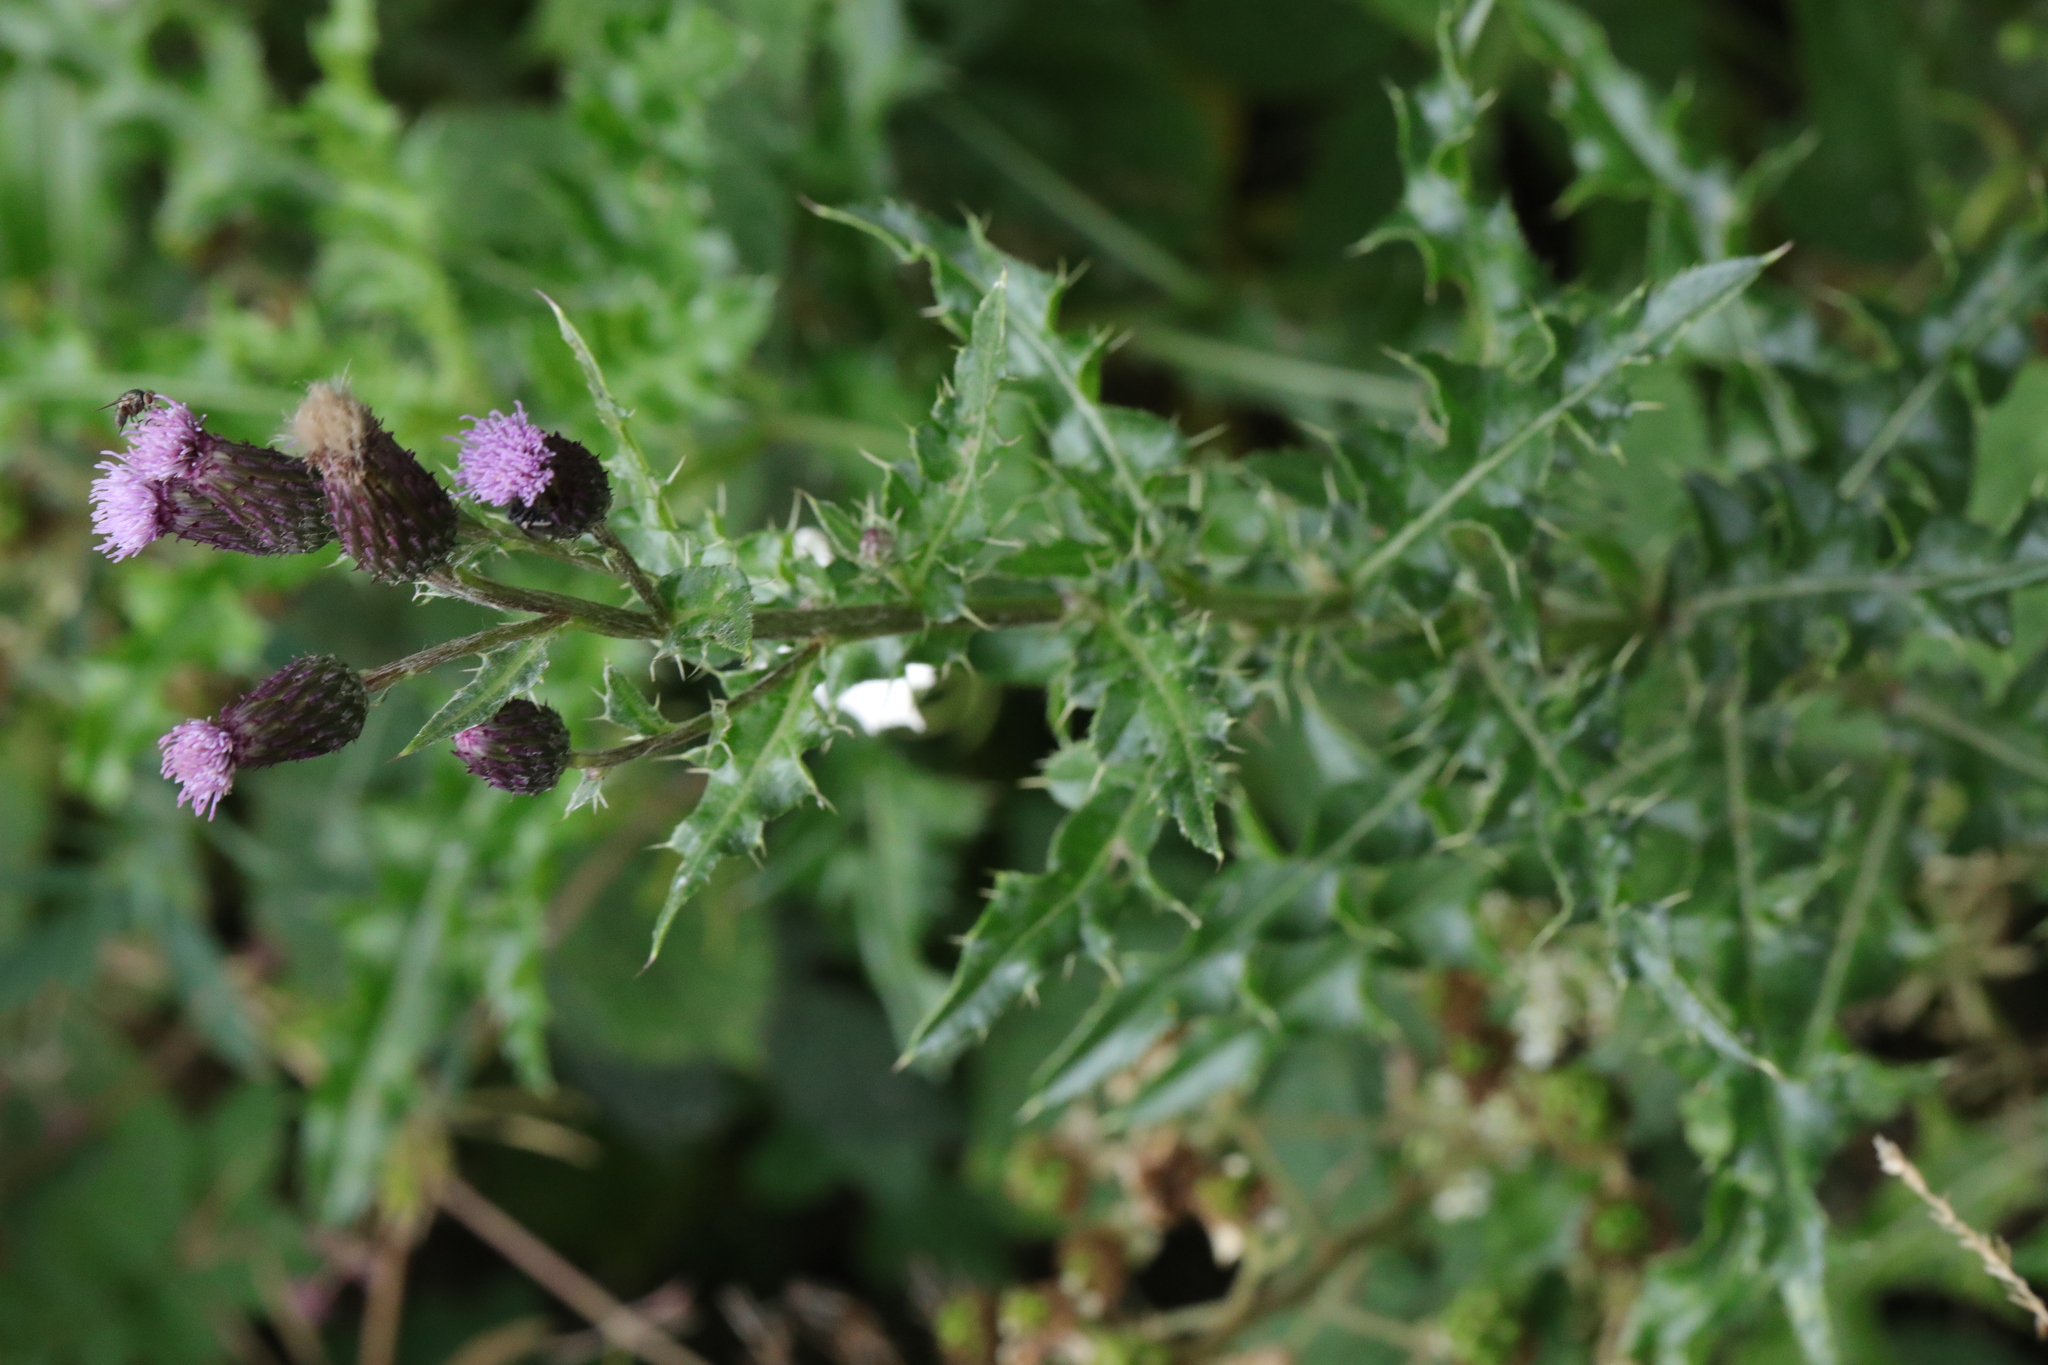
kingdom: Plantae
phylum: Tracheophyta
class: Magnoliopsida
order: Asterales
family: Asteraceae
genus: Cirsium
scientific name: Cirsium arvense
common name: Creeping thistle
